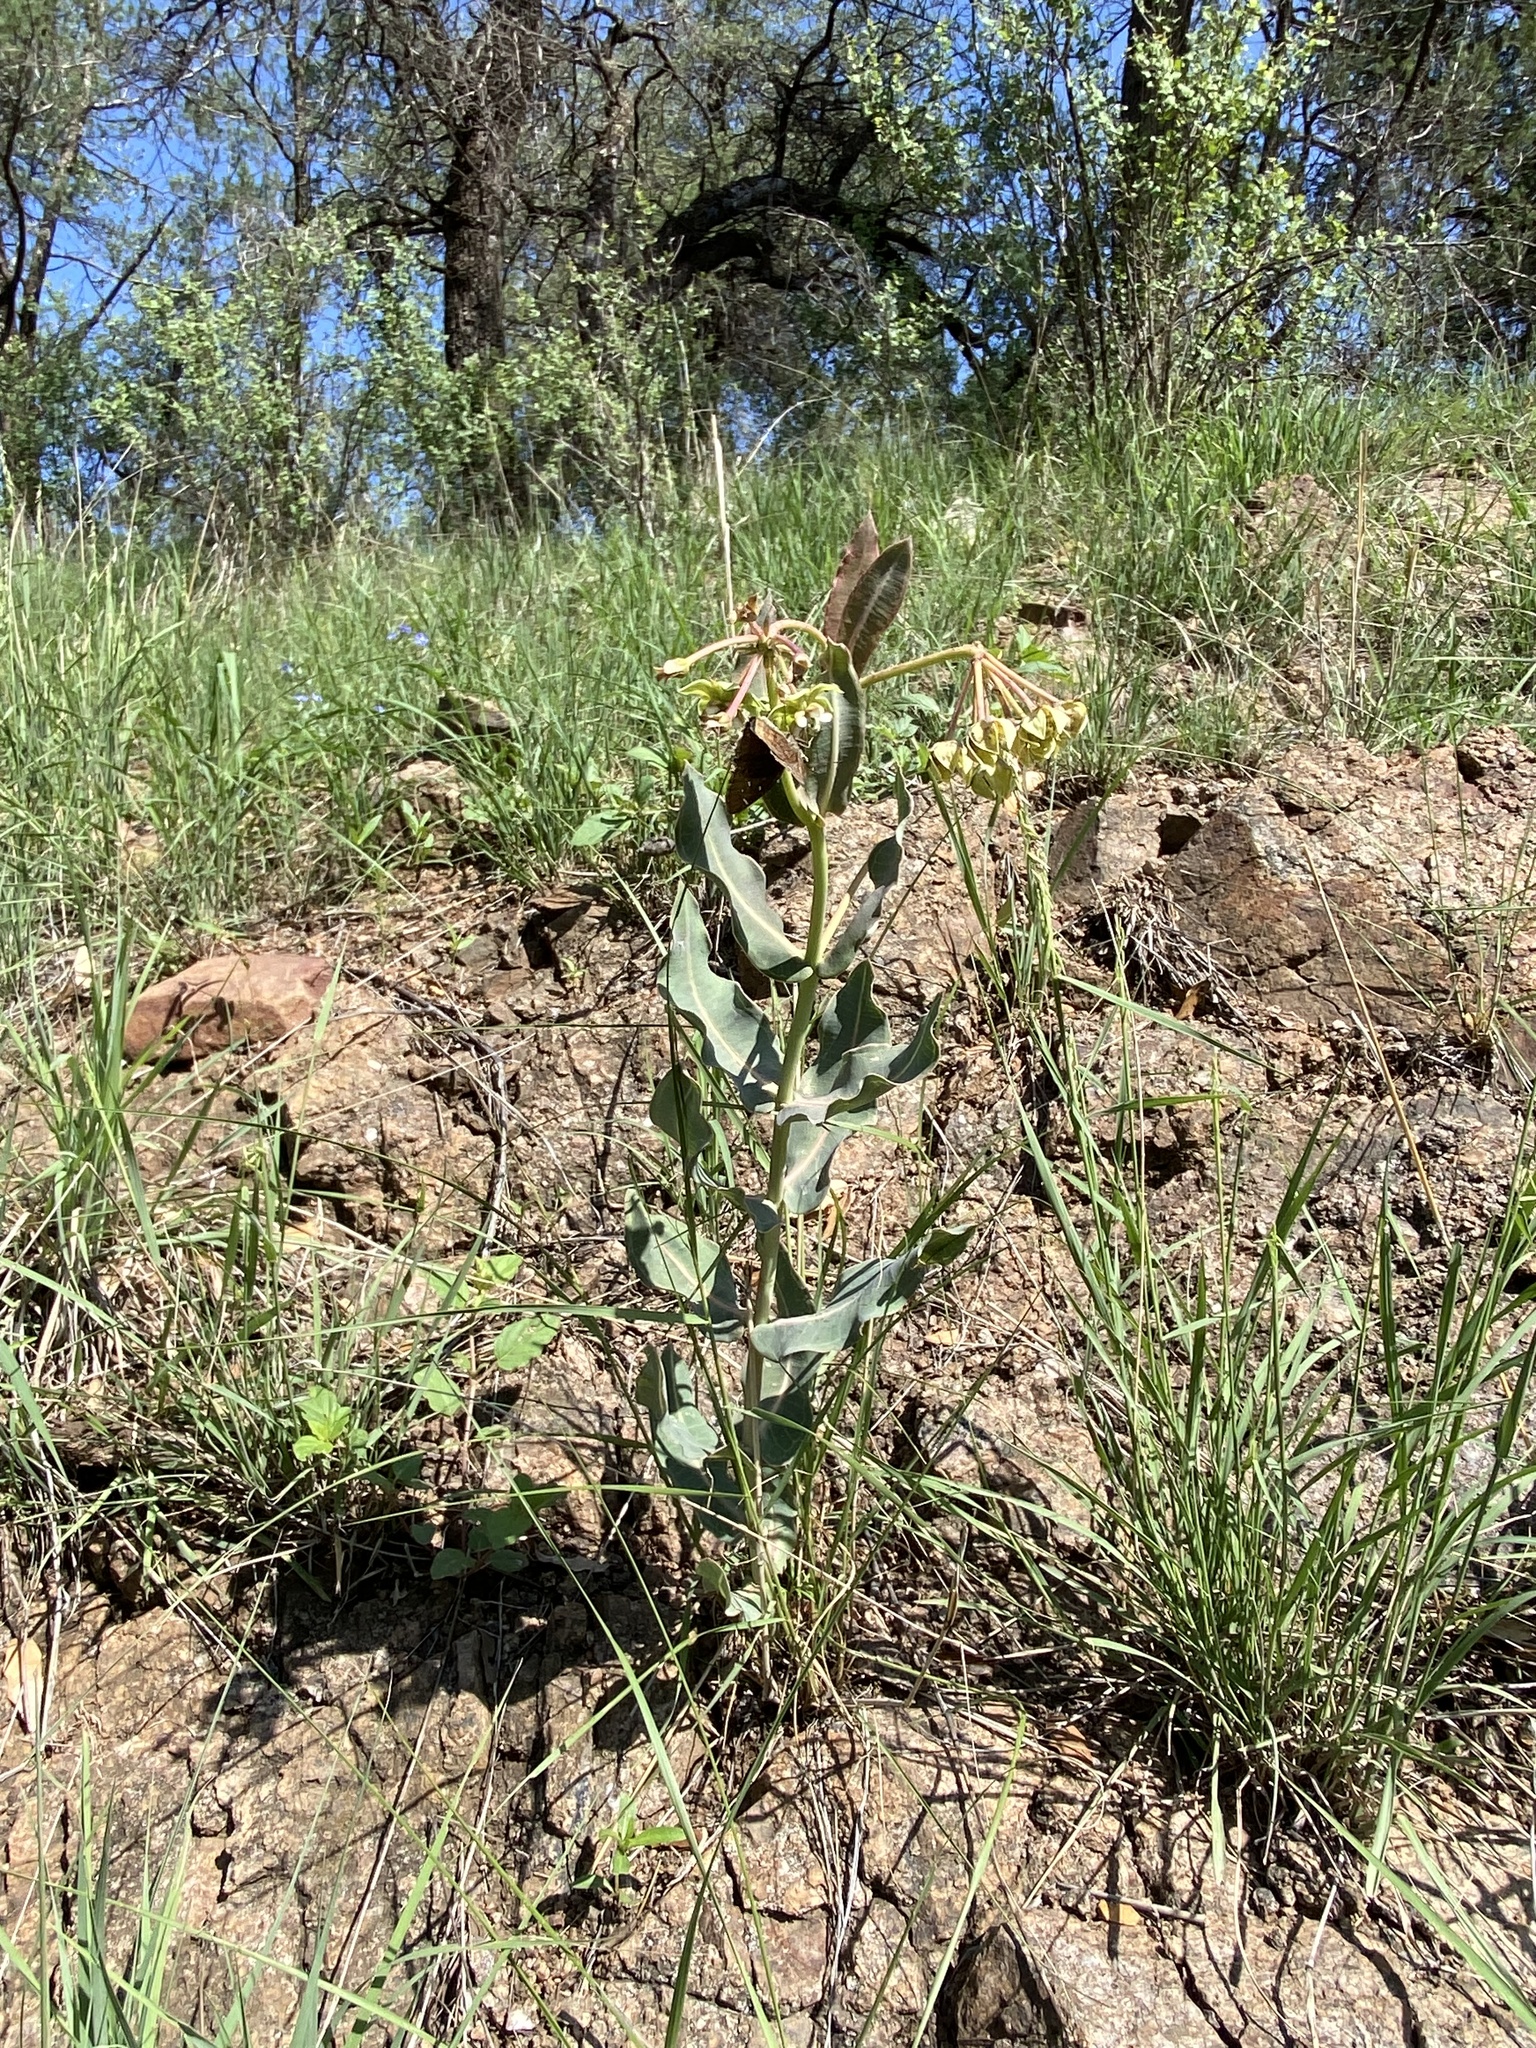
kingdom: Plantae
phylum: Tracheophyta
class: Magnoliopsida
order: Gentianales
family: Apocynaceae
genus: Asclepias
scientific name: Asclepias elata
